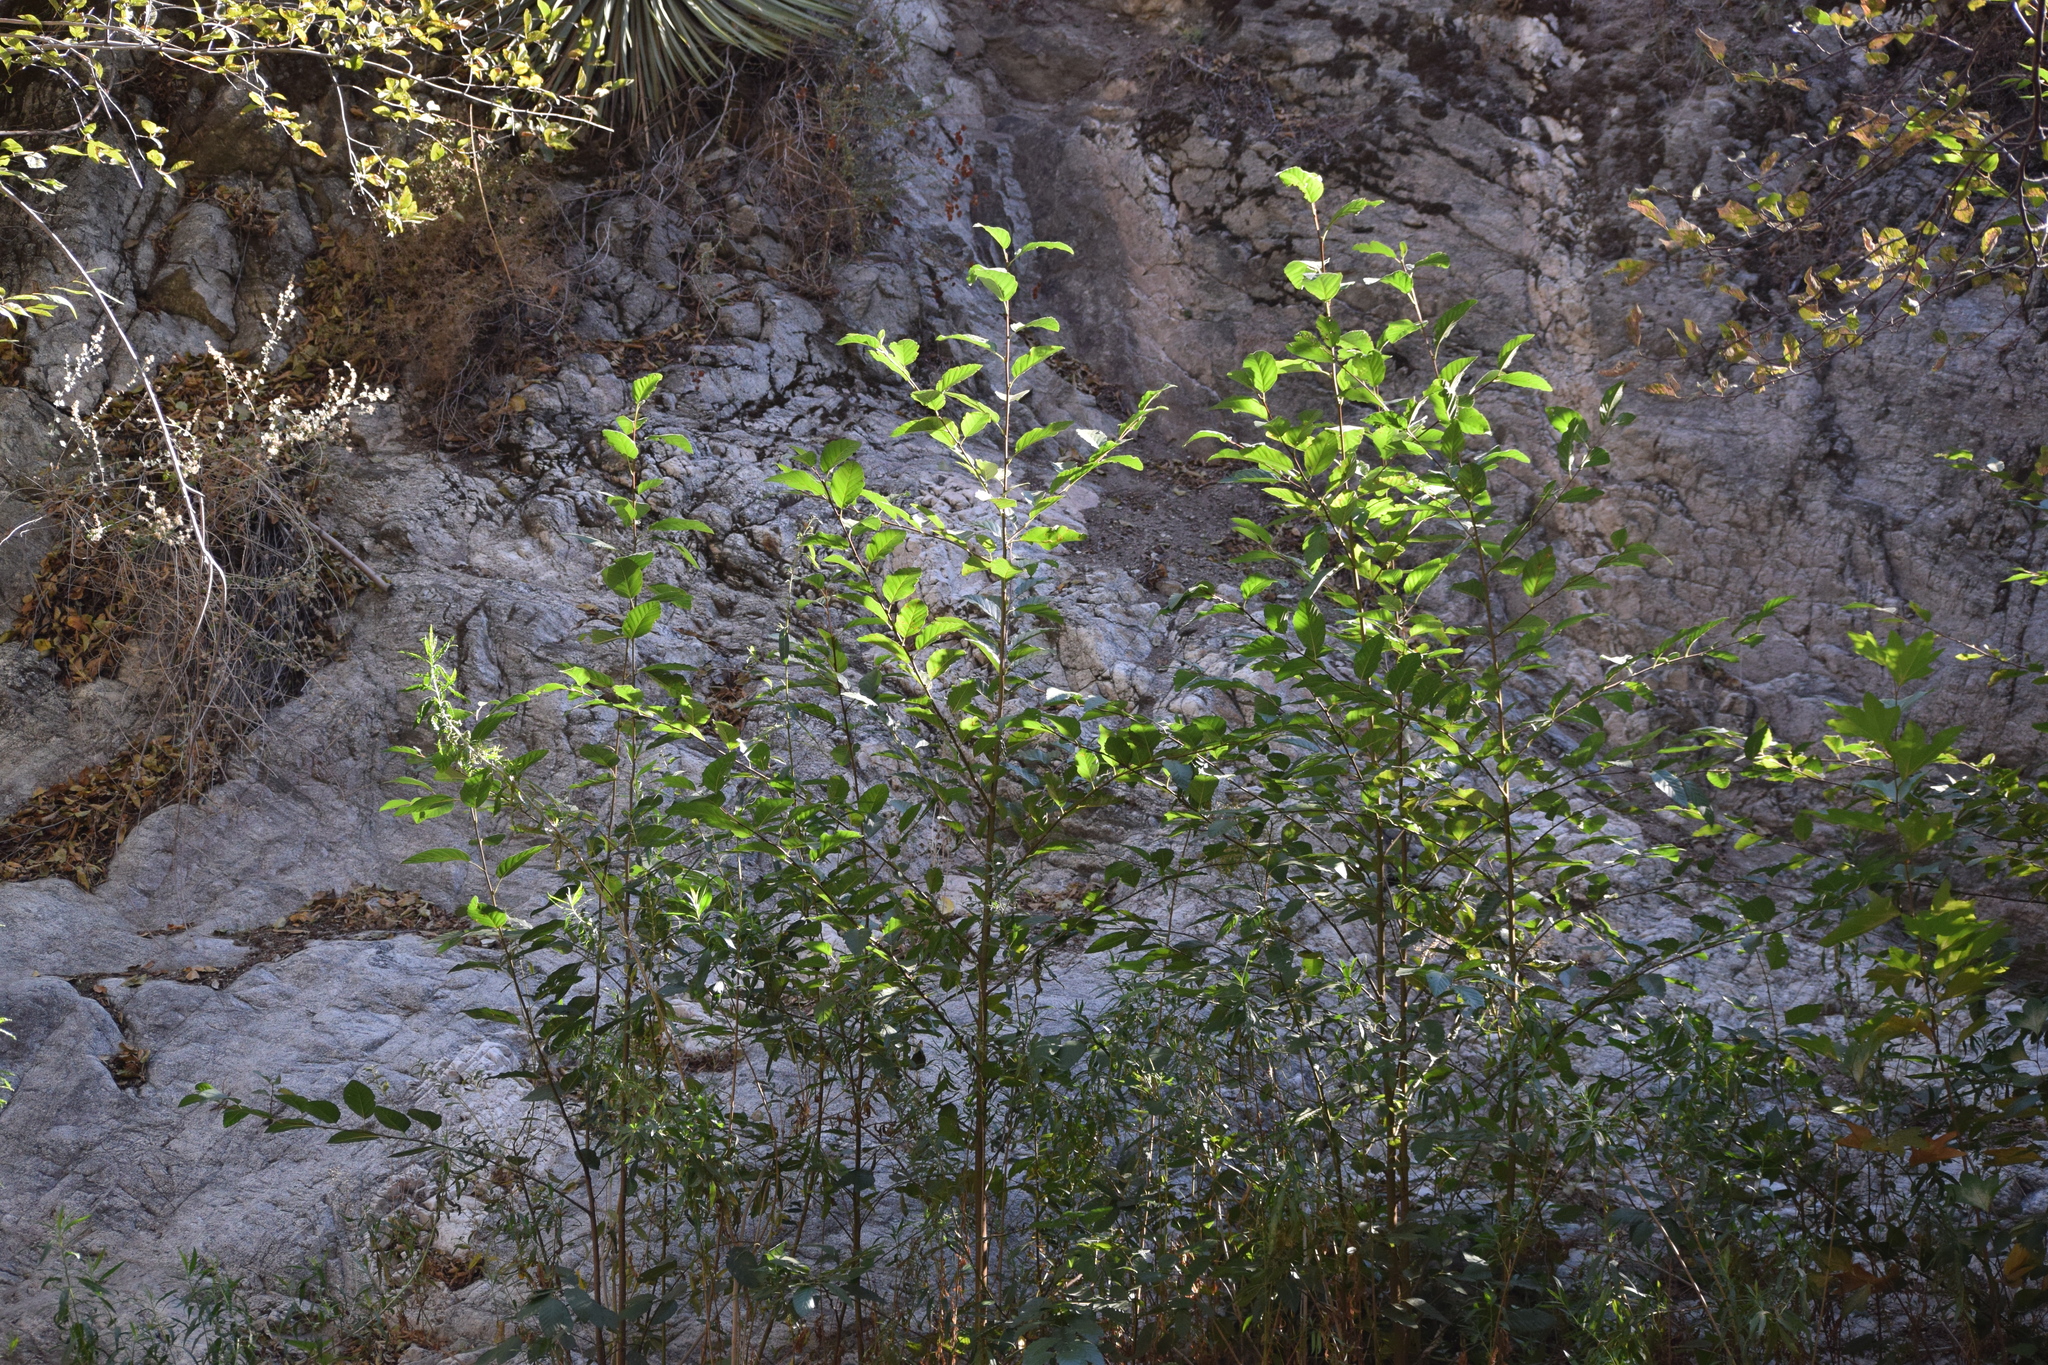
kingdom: Plantae
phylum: Tracheophyta
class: Magnoliopsida
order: Fagales
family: Betulaceae
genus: Alnus
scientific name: Alnus rhombifolia
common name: California alder
